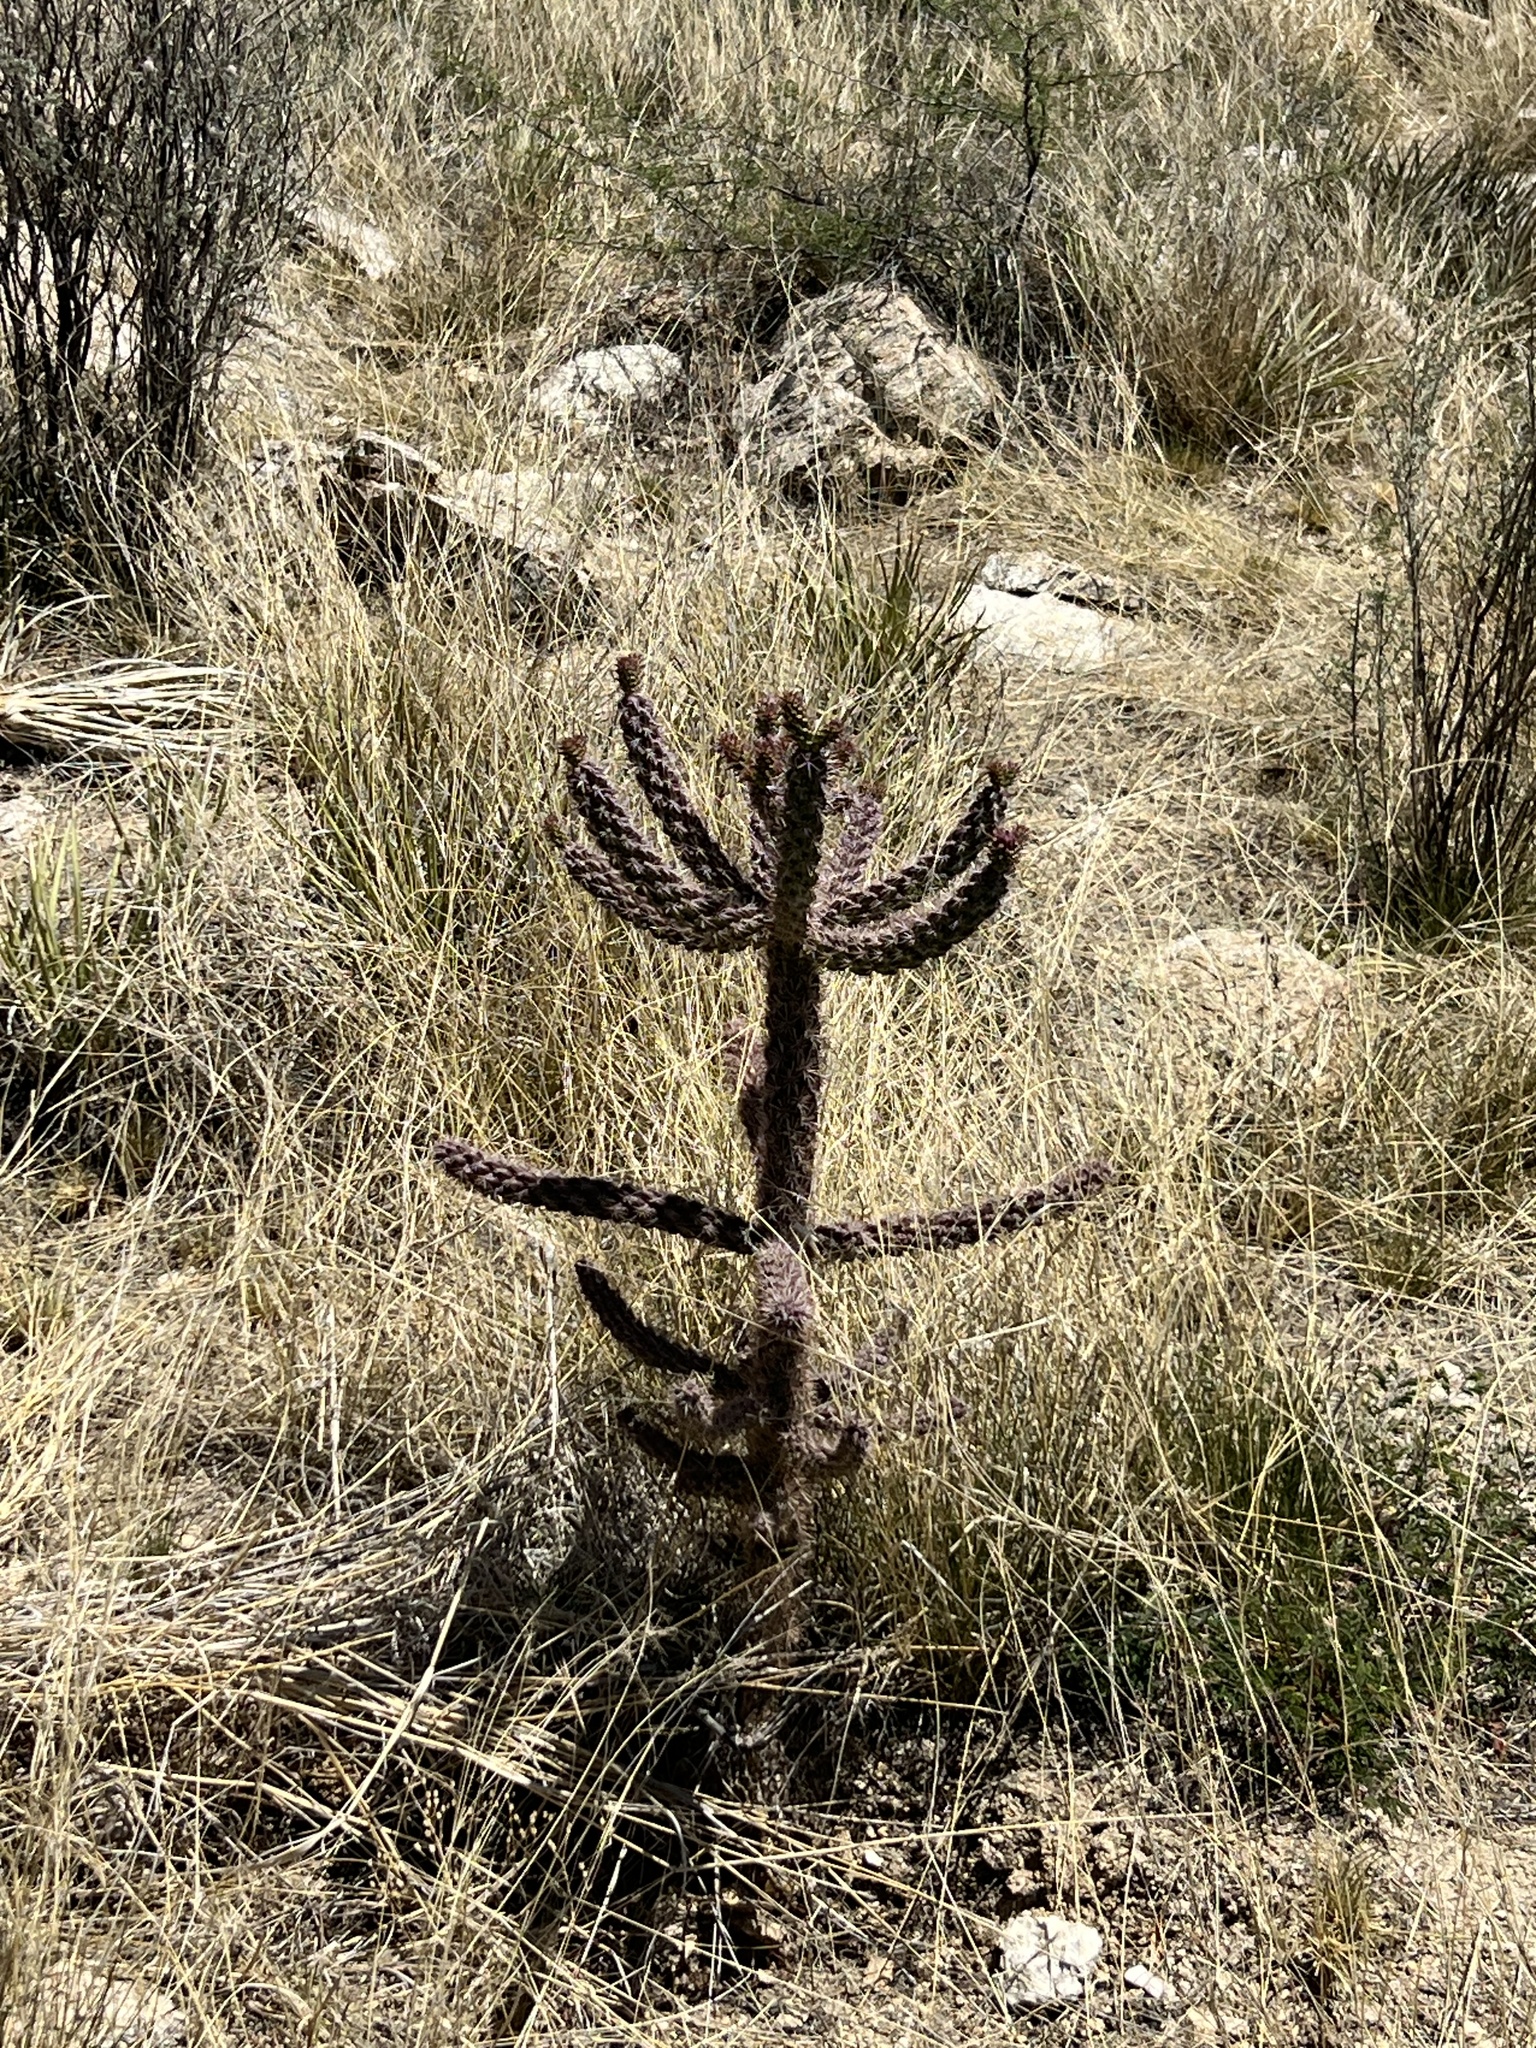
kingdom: Plantae
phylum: Tracheophyta
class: Magnoliopsida
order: Caryophyllales
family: Cactaceae
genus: Cylindropuntia
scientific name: Cylindropuntia imbricata
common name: Candelabrum cactus
